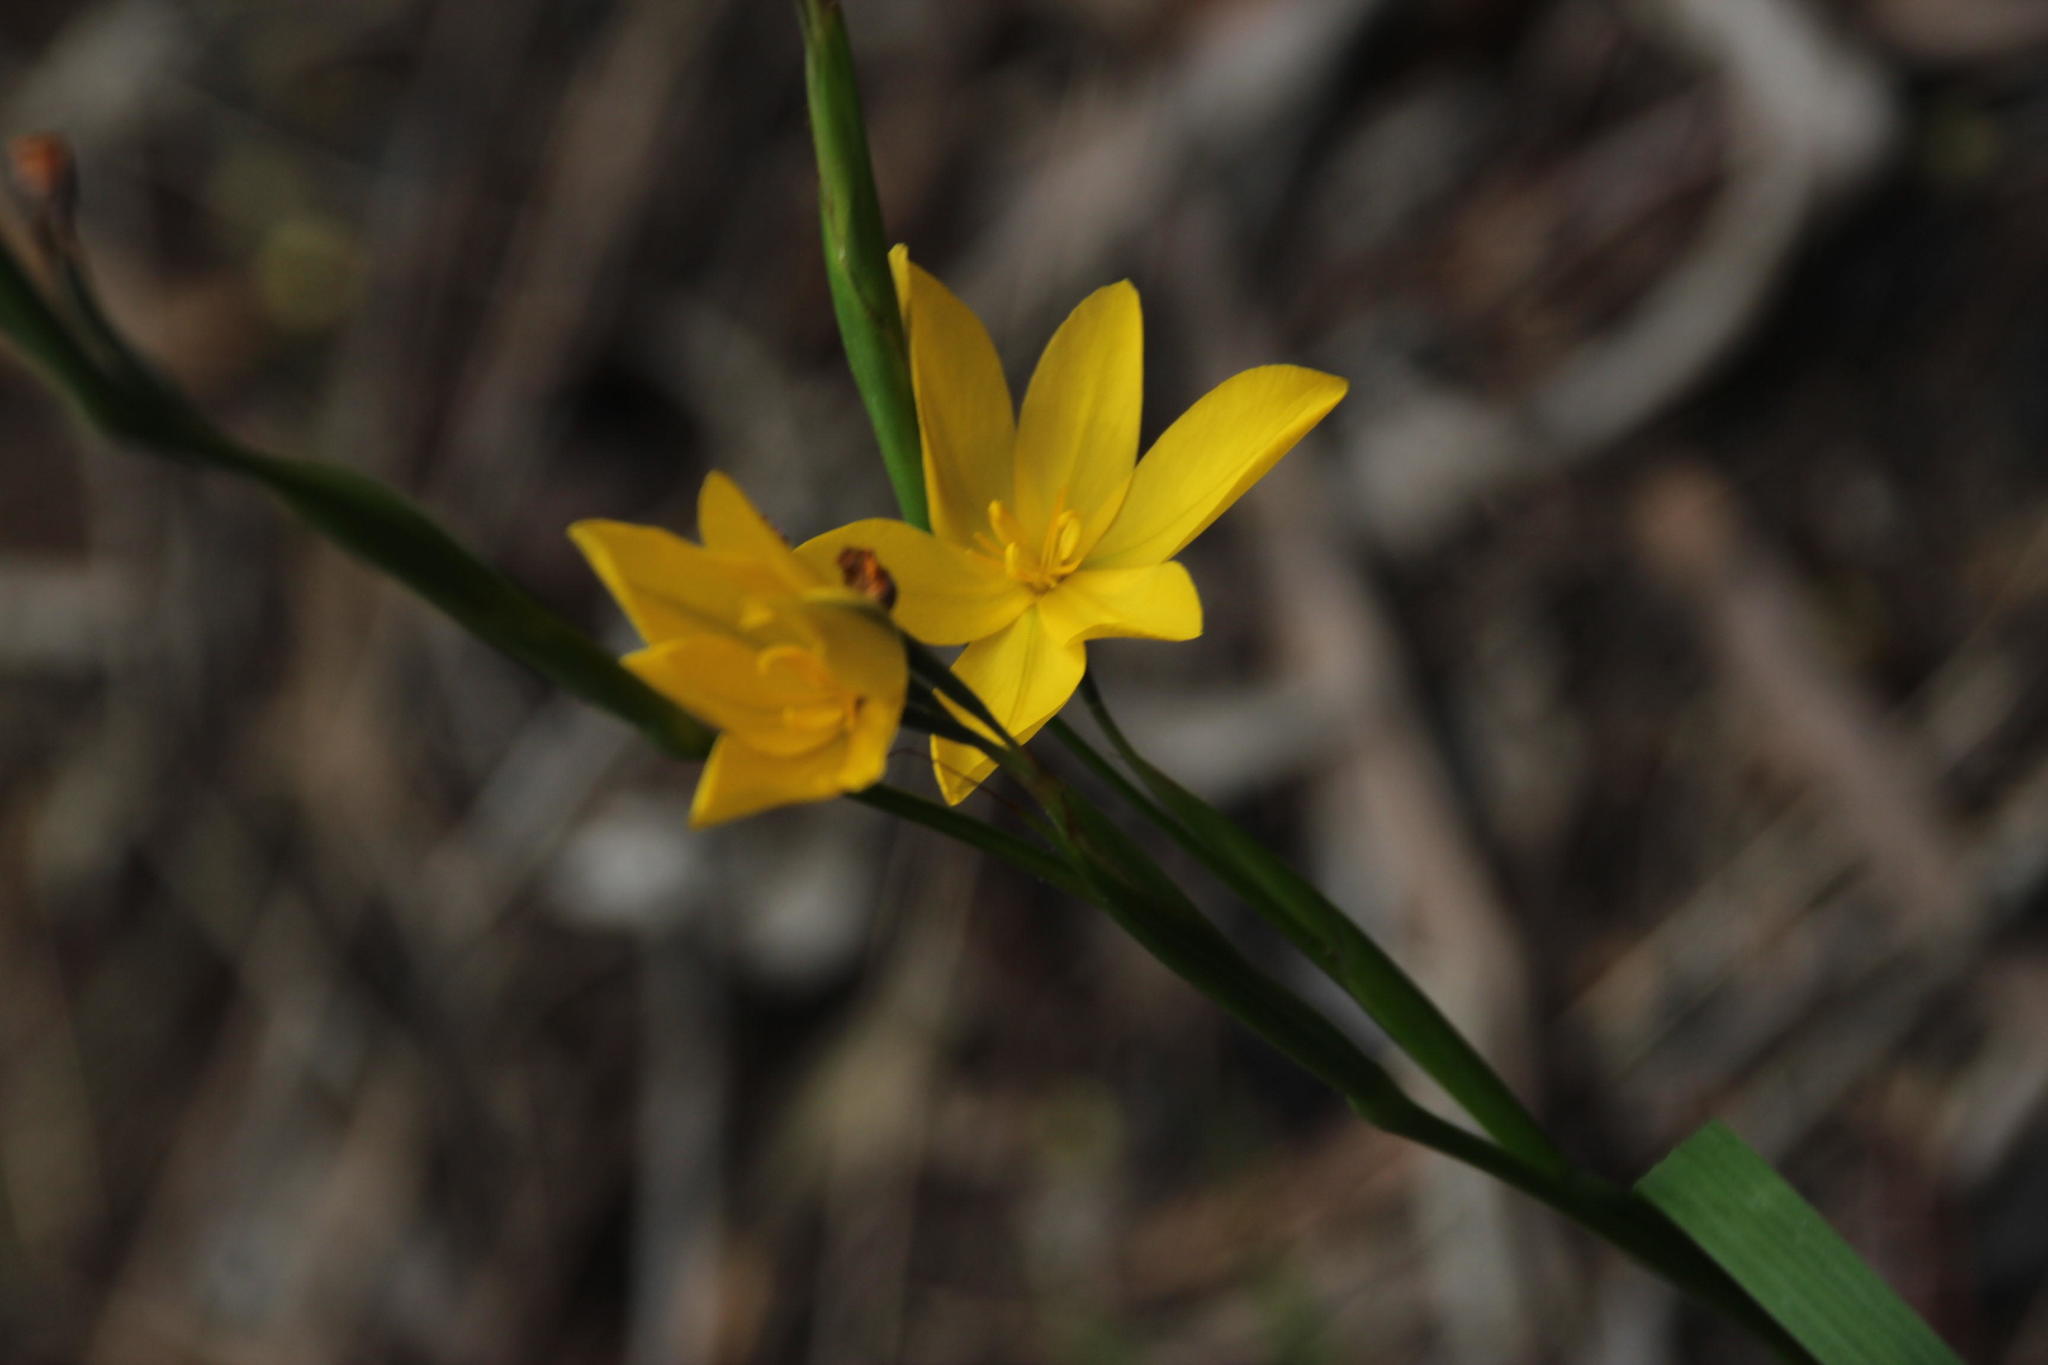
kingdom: Plantae
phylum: Tracheophyta
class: Liliopsida
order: Asparagales
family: Iridaceae
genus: Moraea
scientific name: Moraea lewisiae
